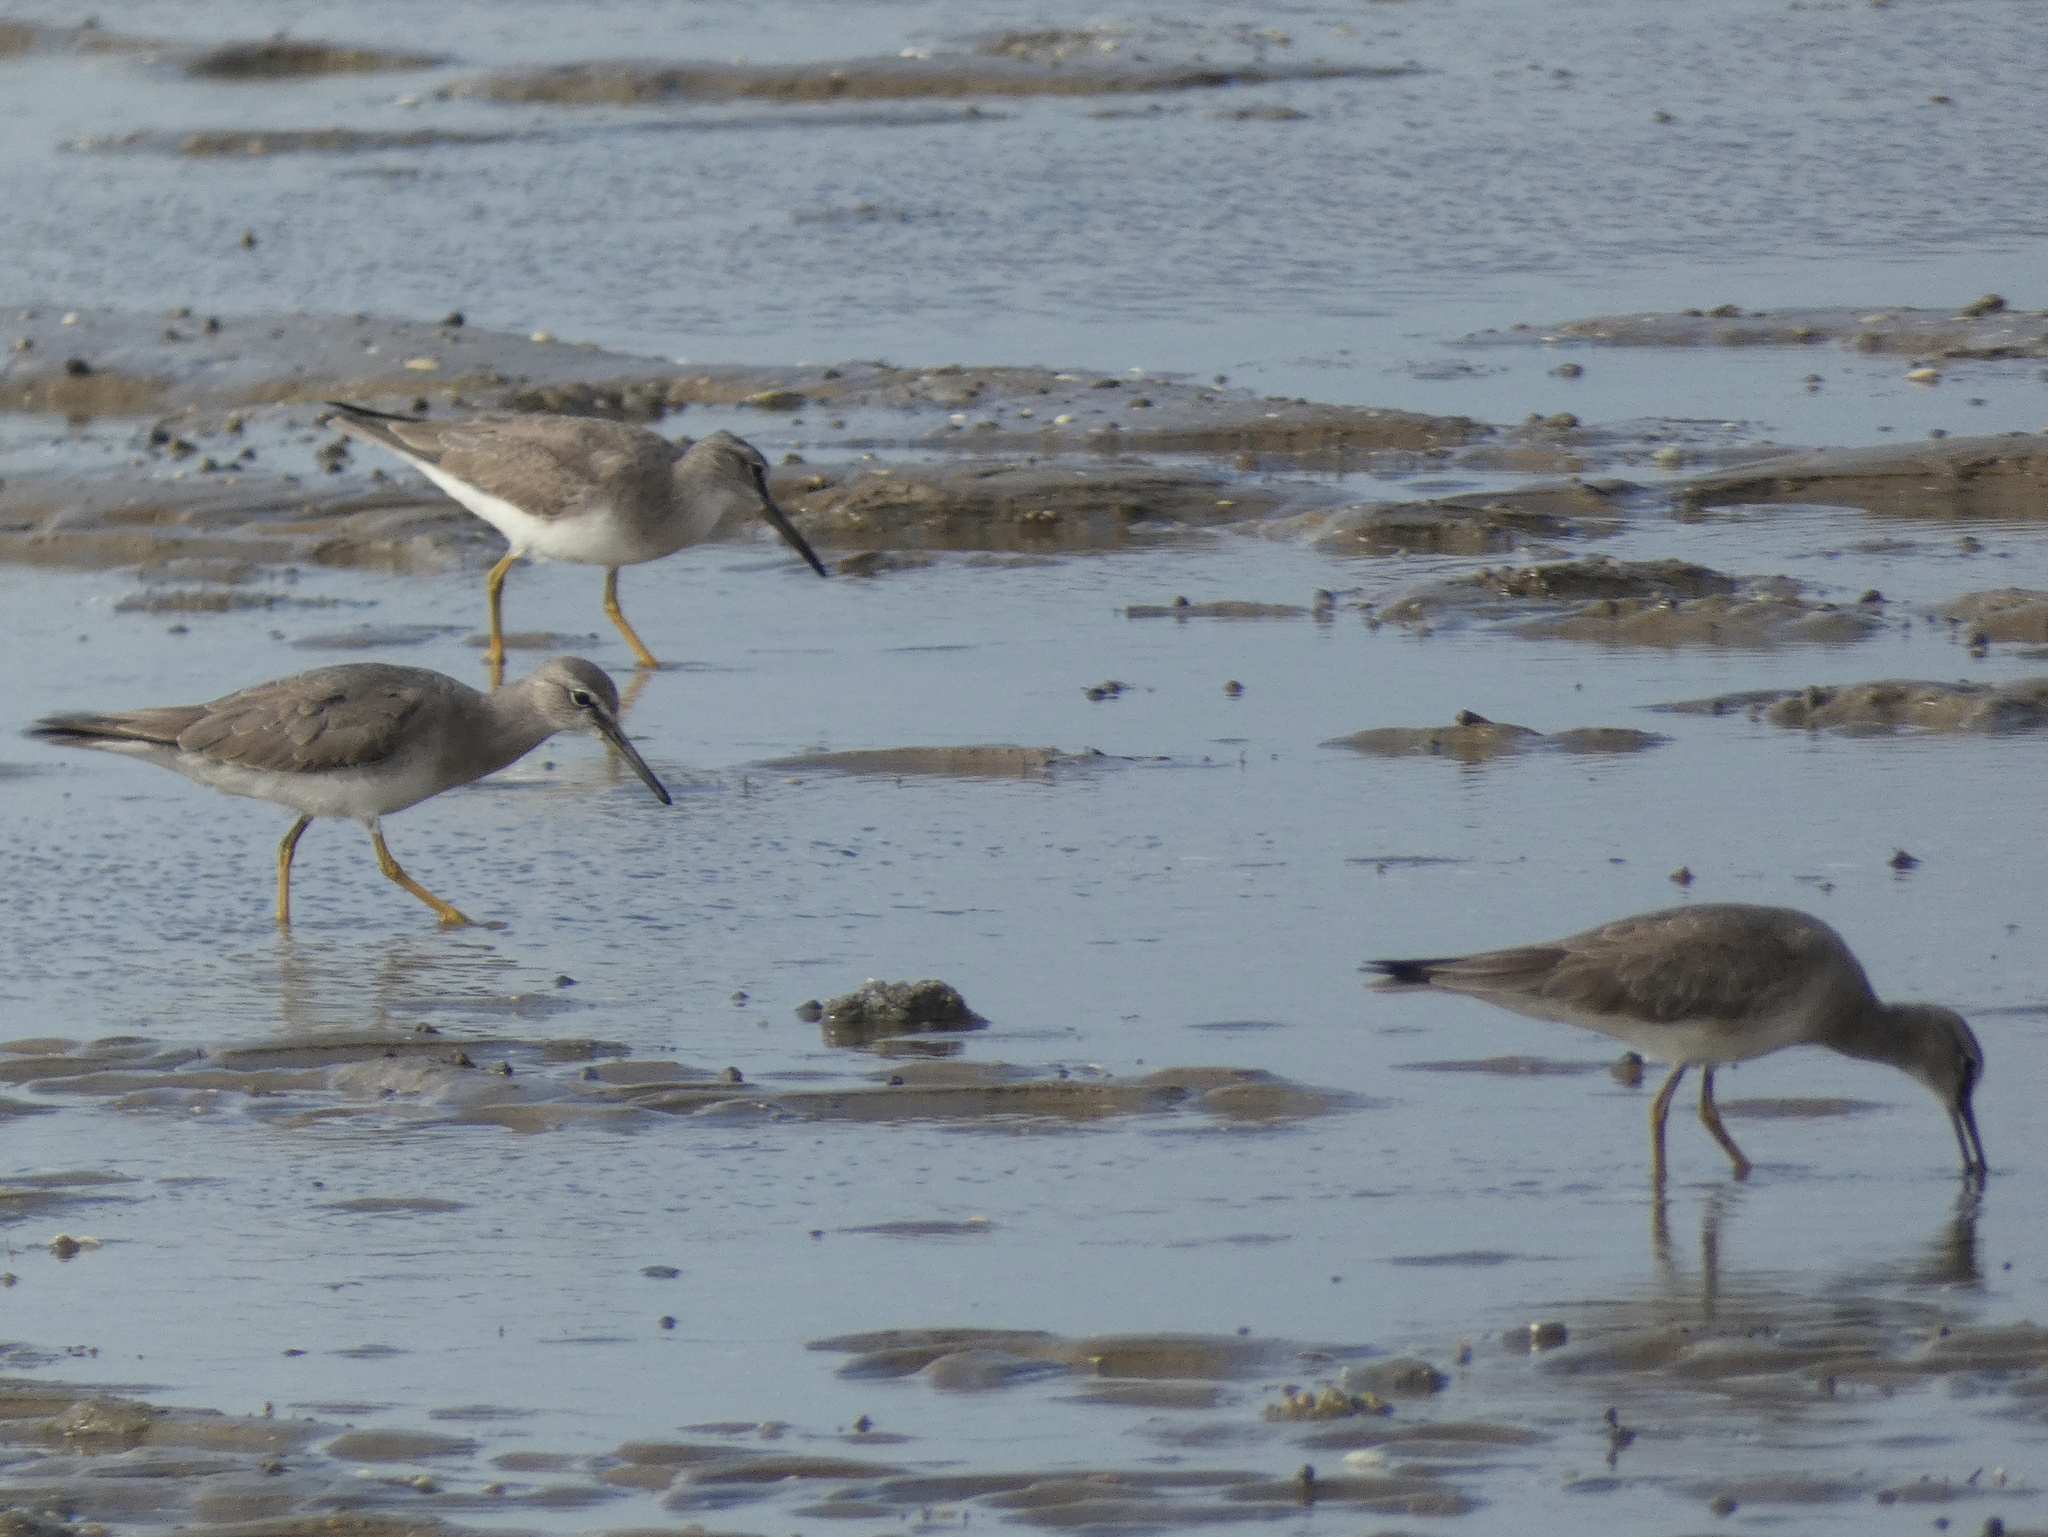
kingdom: Animalia
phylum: Chordata
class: Aves
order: Charadriiformes
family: Scolopacidae
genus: Tringa
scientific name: Tringa brevipes
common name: Grey-tailed tattler
